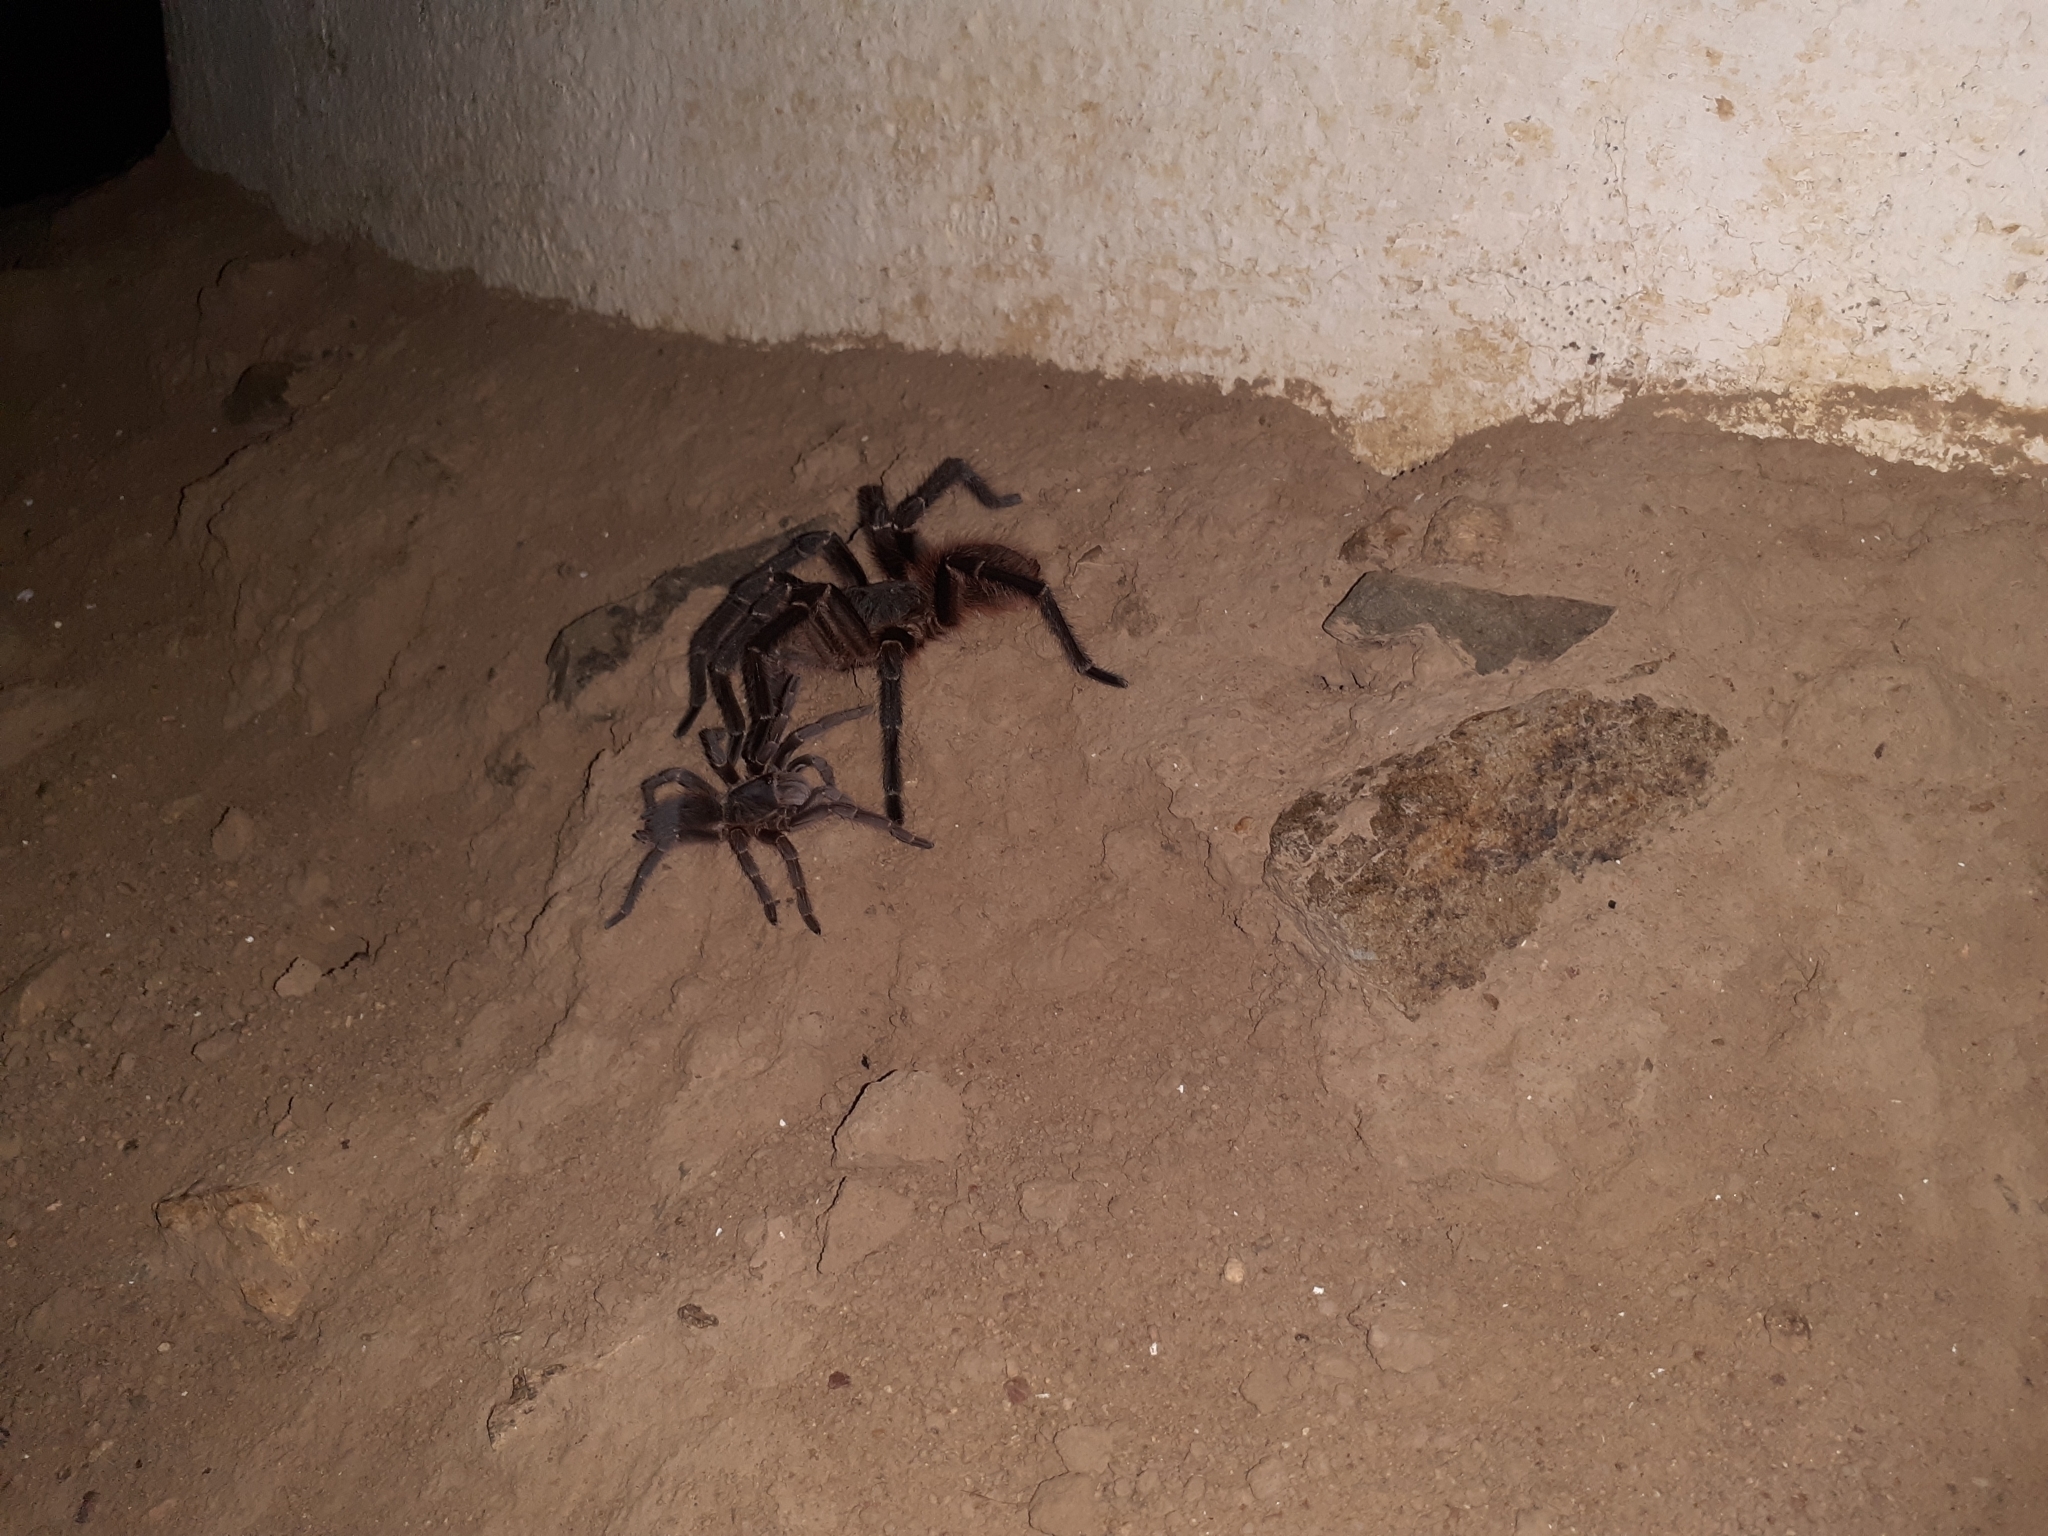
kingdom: Animalia
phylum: Arthropoda
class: Arachnida
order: Araneae
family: Theraphosidae
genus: Acanthoscurria
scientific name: Acanthoscurria natalensis
